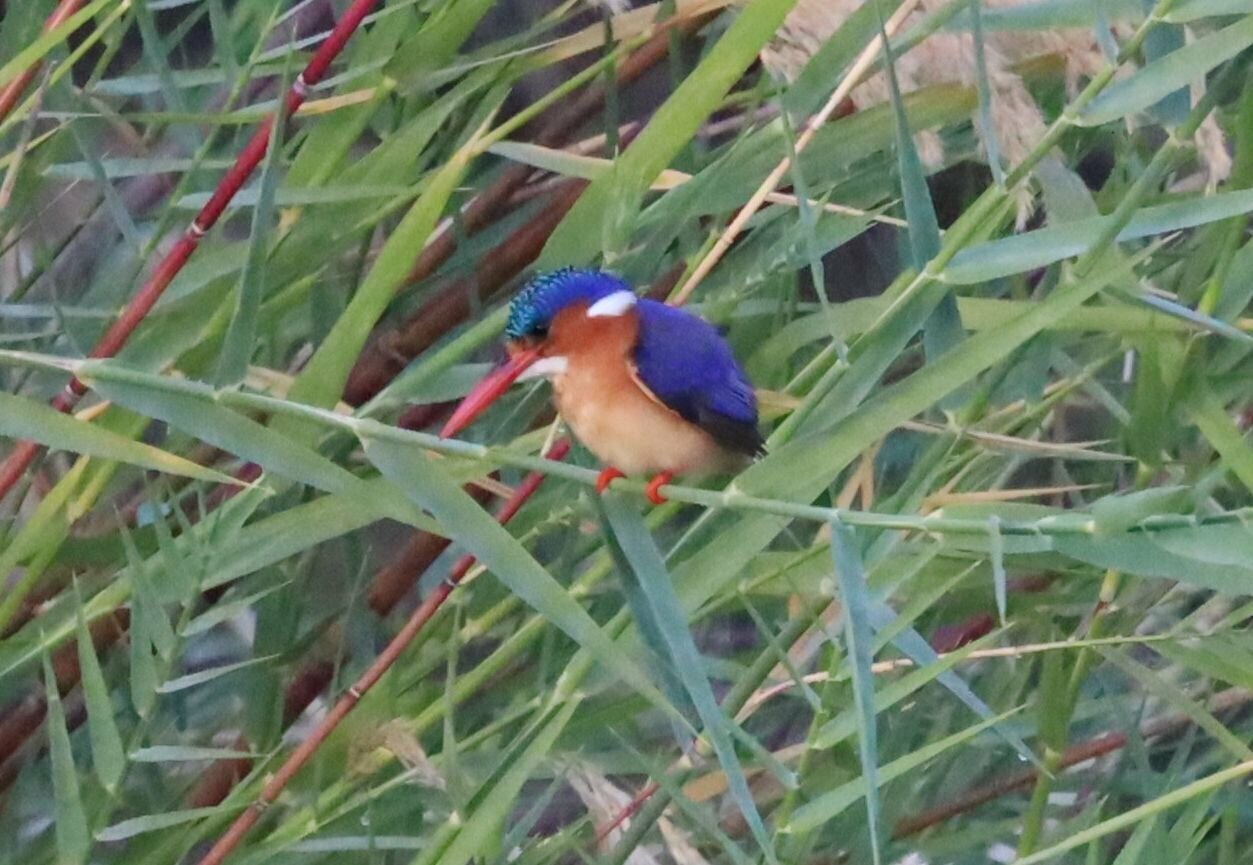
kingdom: Animalia
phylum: Chordata
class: Aves
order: Coraciiformes
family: Alcedinidae
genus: Corythornis
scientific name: Corythornis cristatus
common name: Malachite kingfisher
